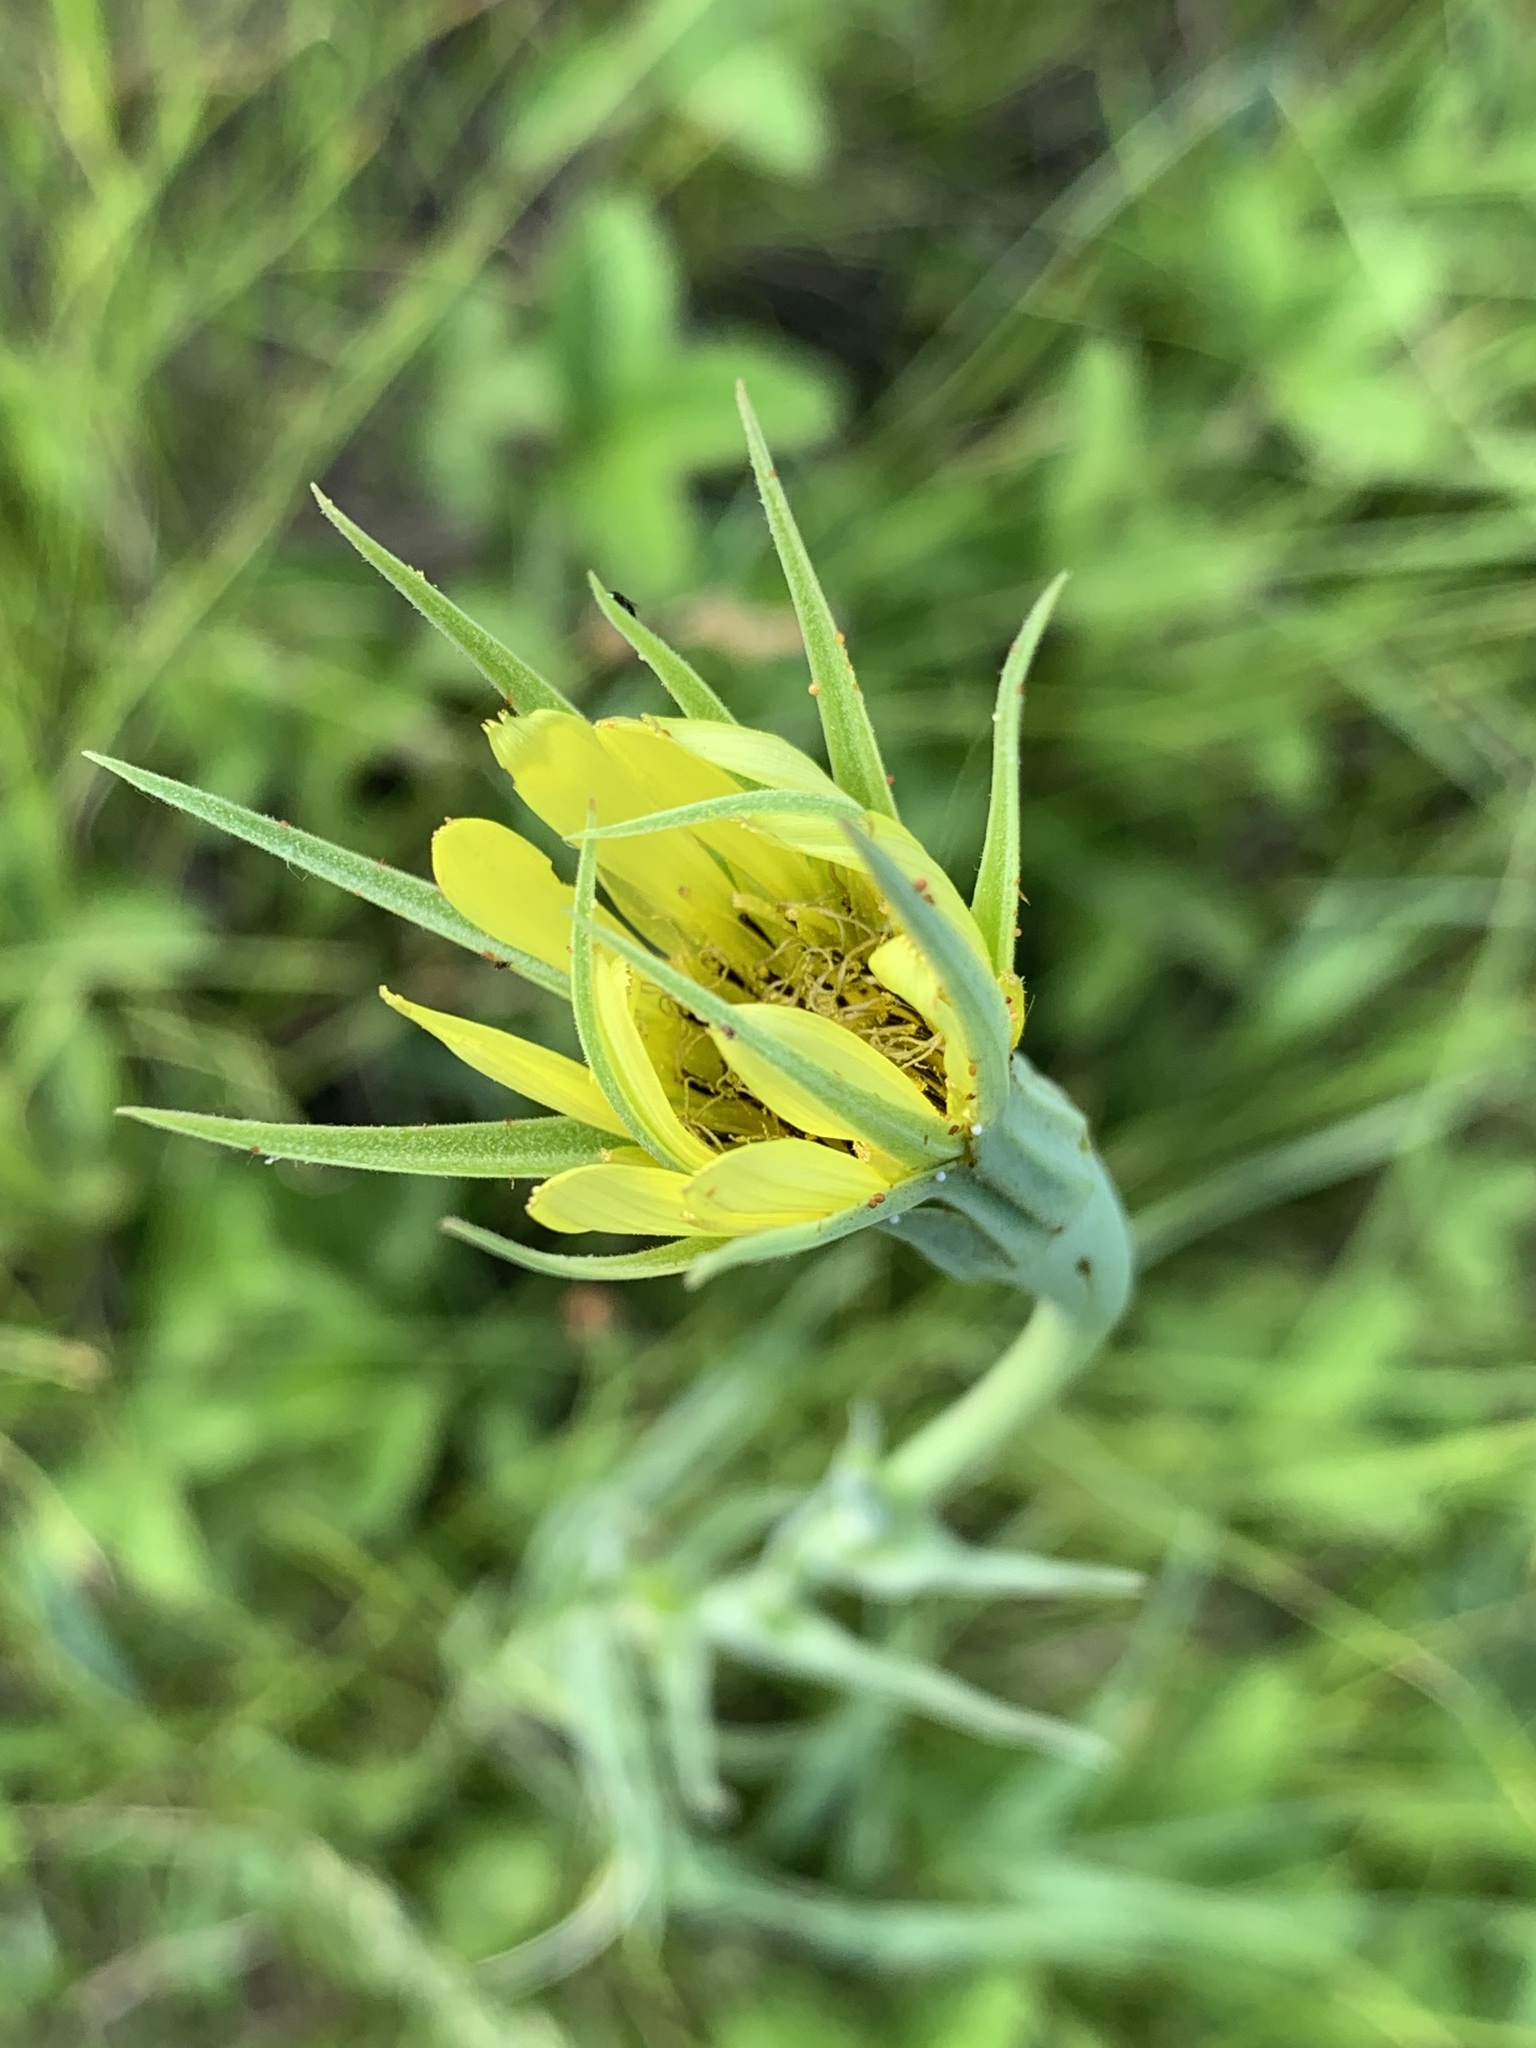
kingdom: Plantae
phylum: Tracheophyta
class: Magnoliopsida
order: Asterales
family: Asteraceae
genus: Tragopogon
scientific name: Tragopogon dubius
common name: Yellow salsify
